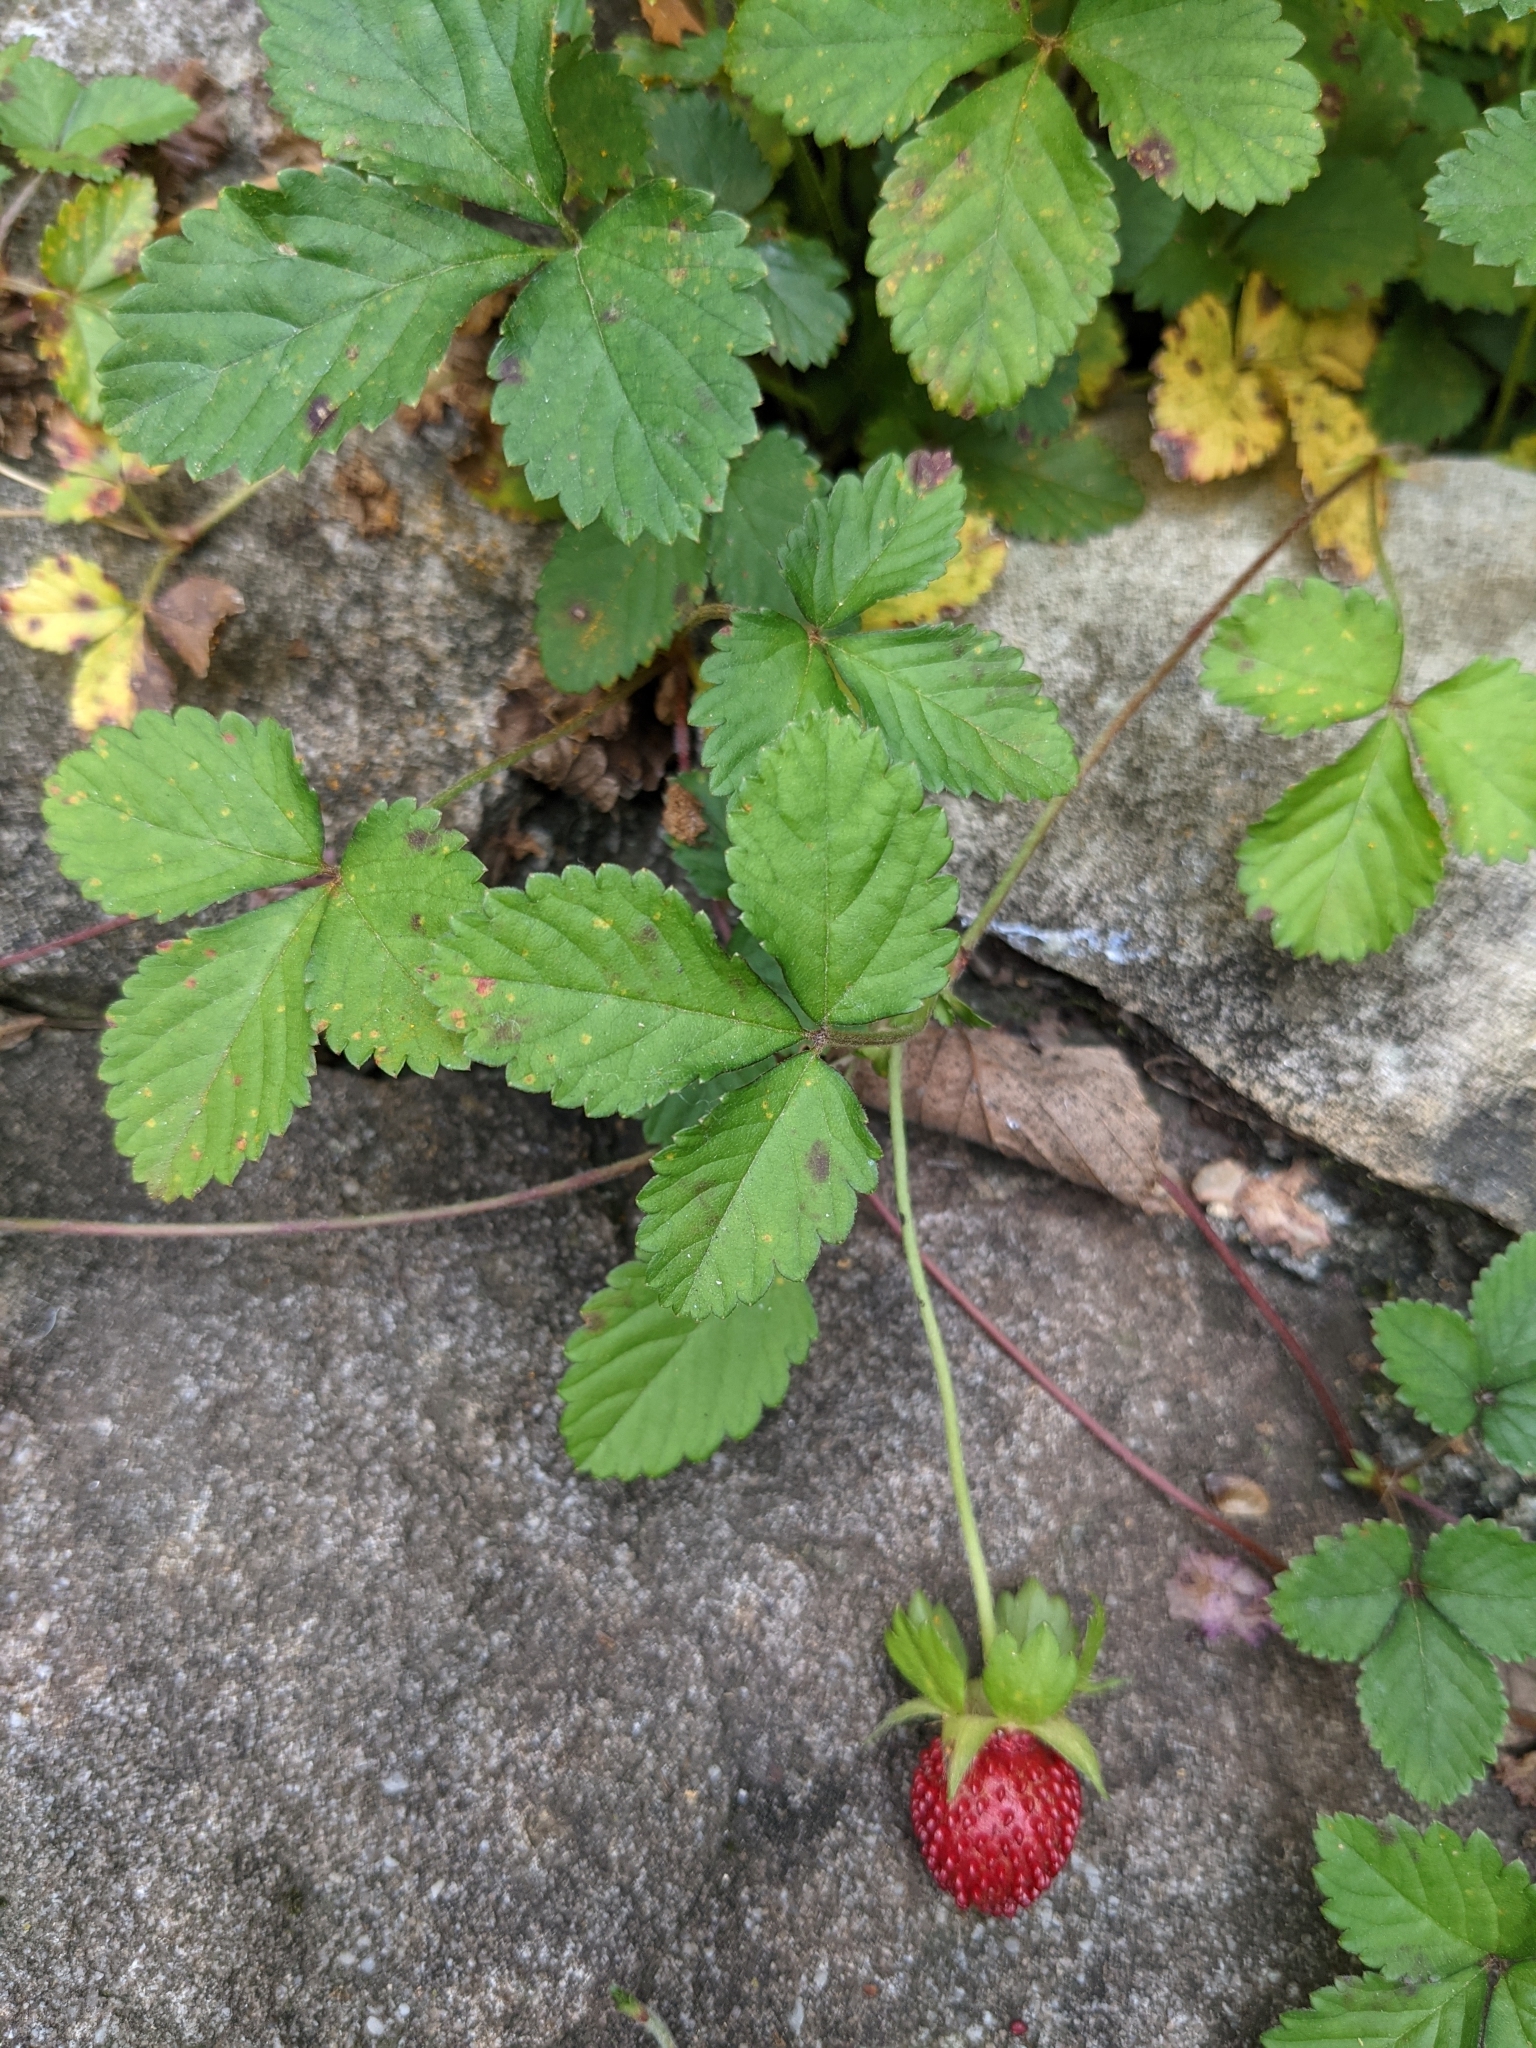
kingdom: Plantae
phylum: Tracheophyta
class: Magnoliopsida
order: Rosales
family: Rosaceae
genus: Potentilla
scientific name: Potentilla indica
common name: Yellow-flowered strawberry
